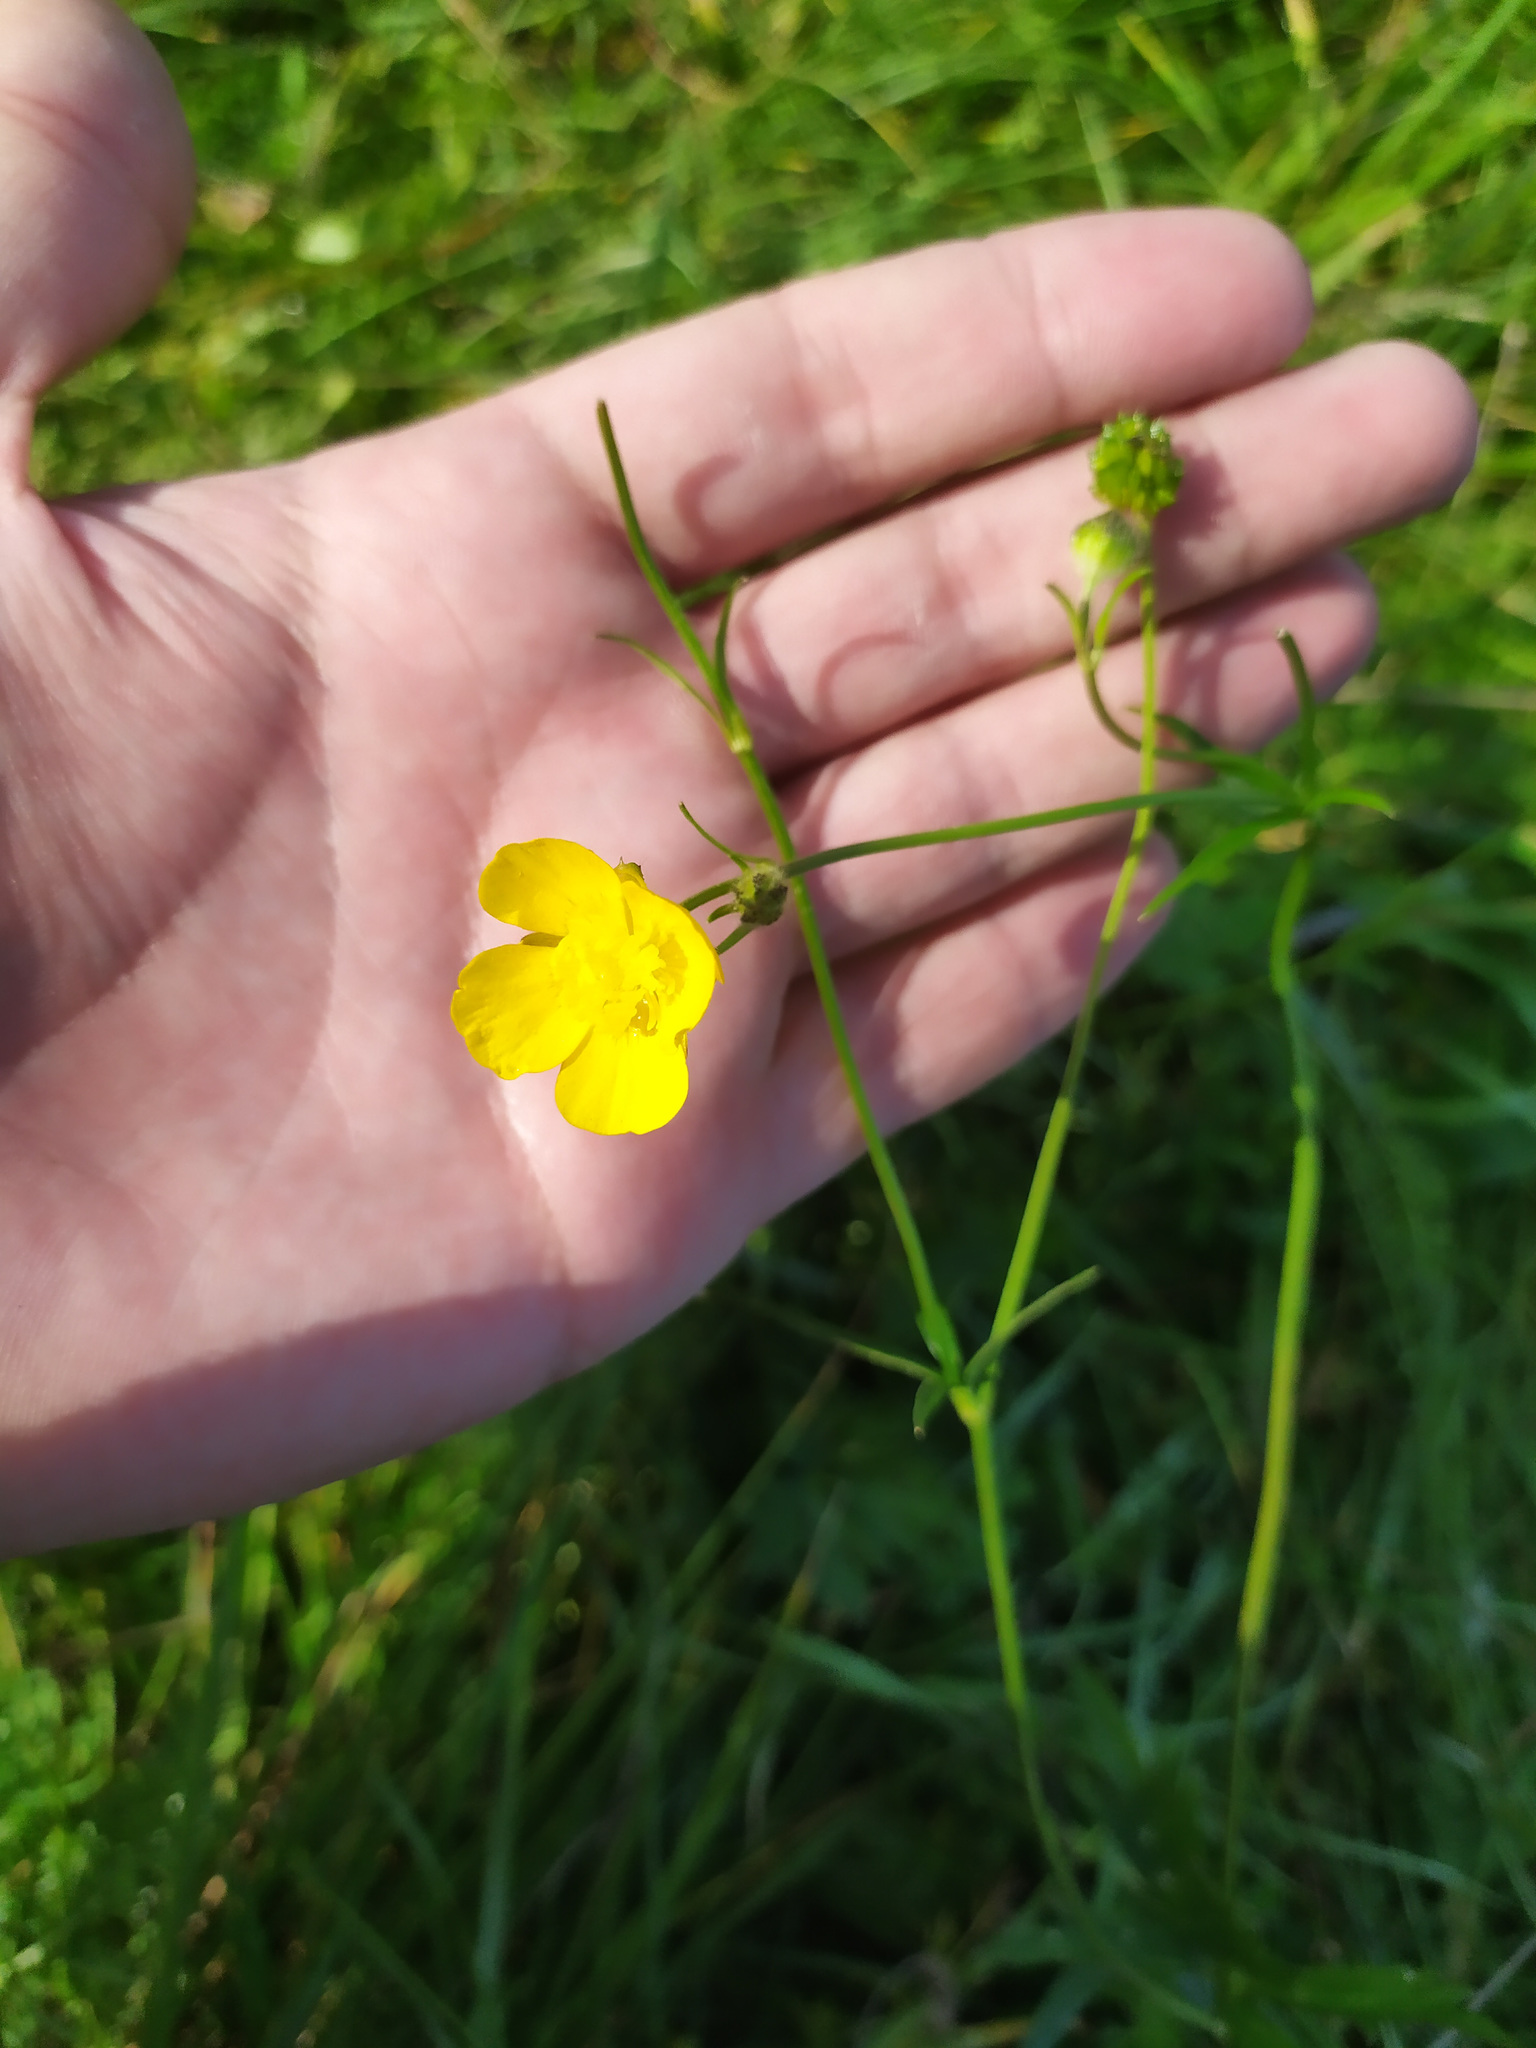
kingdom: Plantae
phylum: Tracheophyta
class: Magnoliopsida
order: Ranunculales
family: Ranunculaceae
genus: Ranunculus
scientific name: Ranunculus polyanthemos
